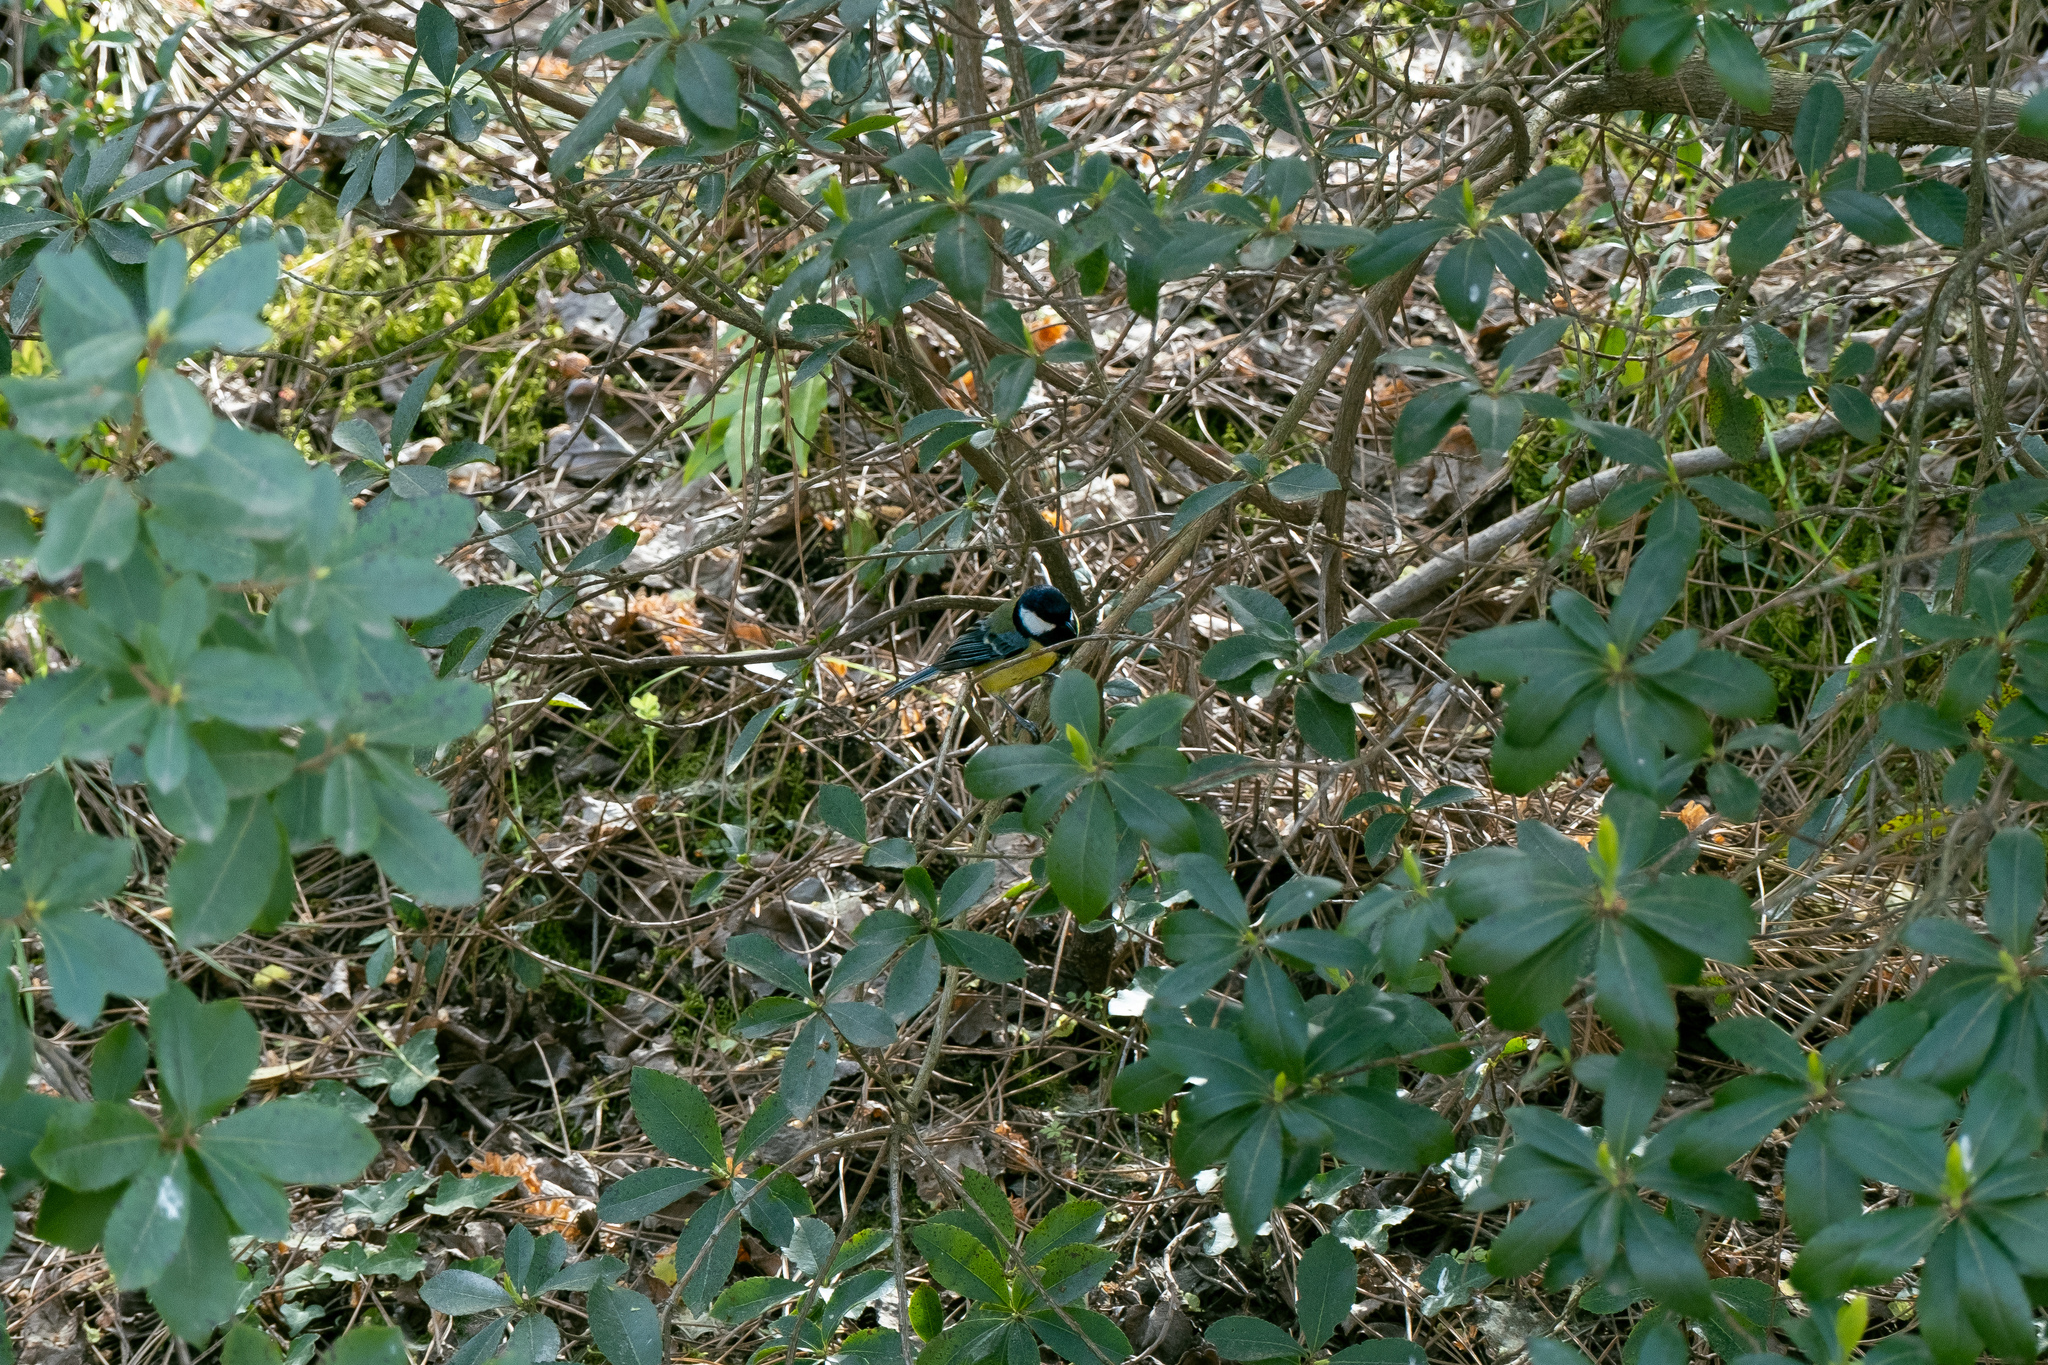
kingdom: Animalia
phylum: Chordata
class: Aves
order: Passeriformes
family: Paridae
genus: Parus
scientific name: Parus major
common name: Great tit
